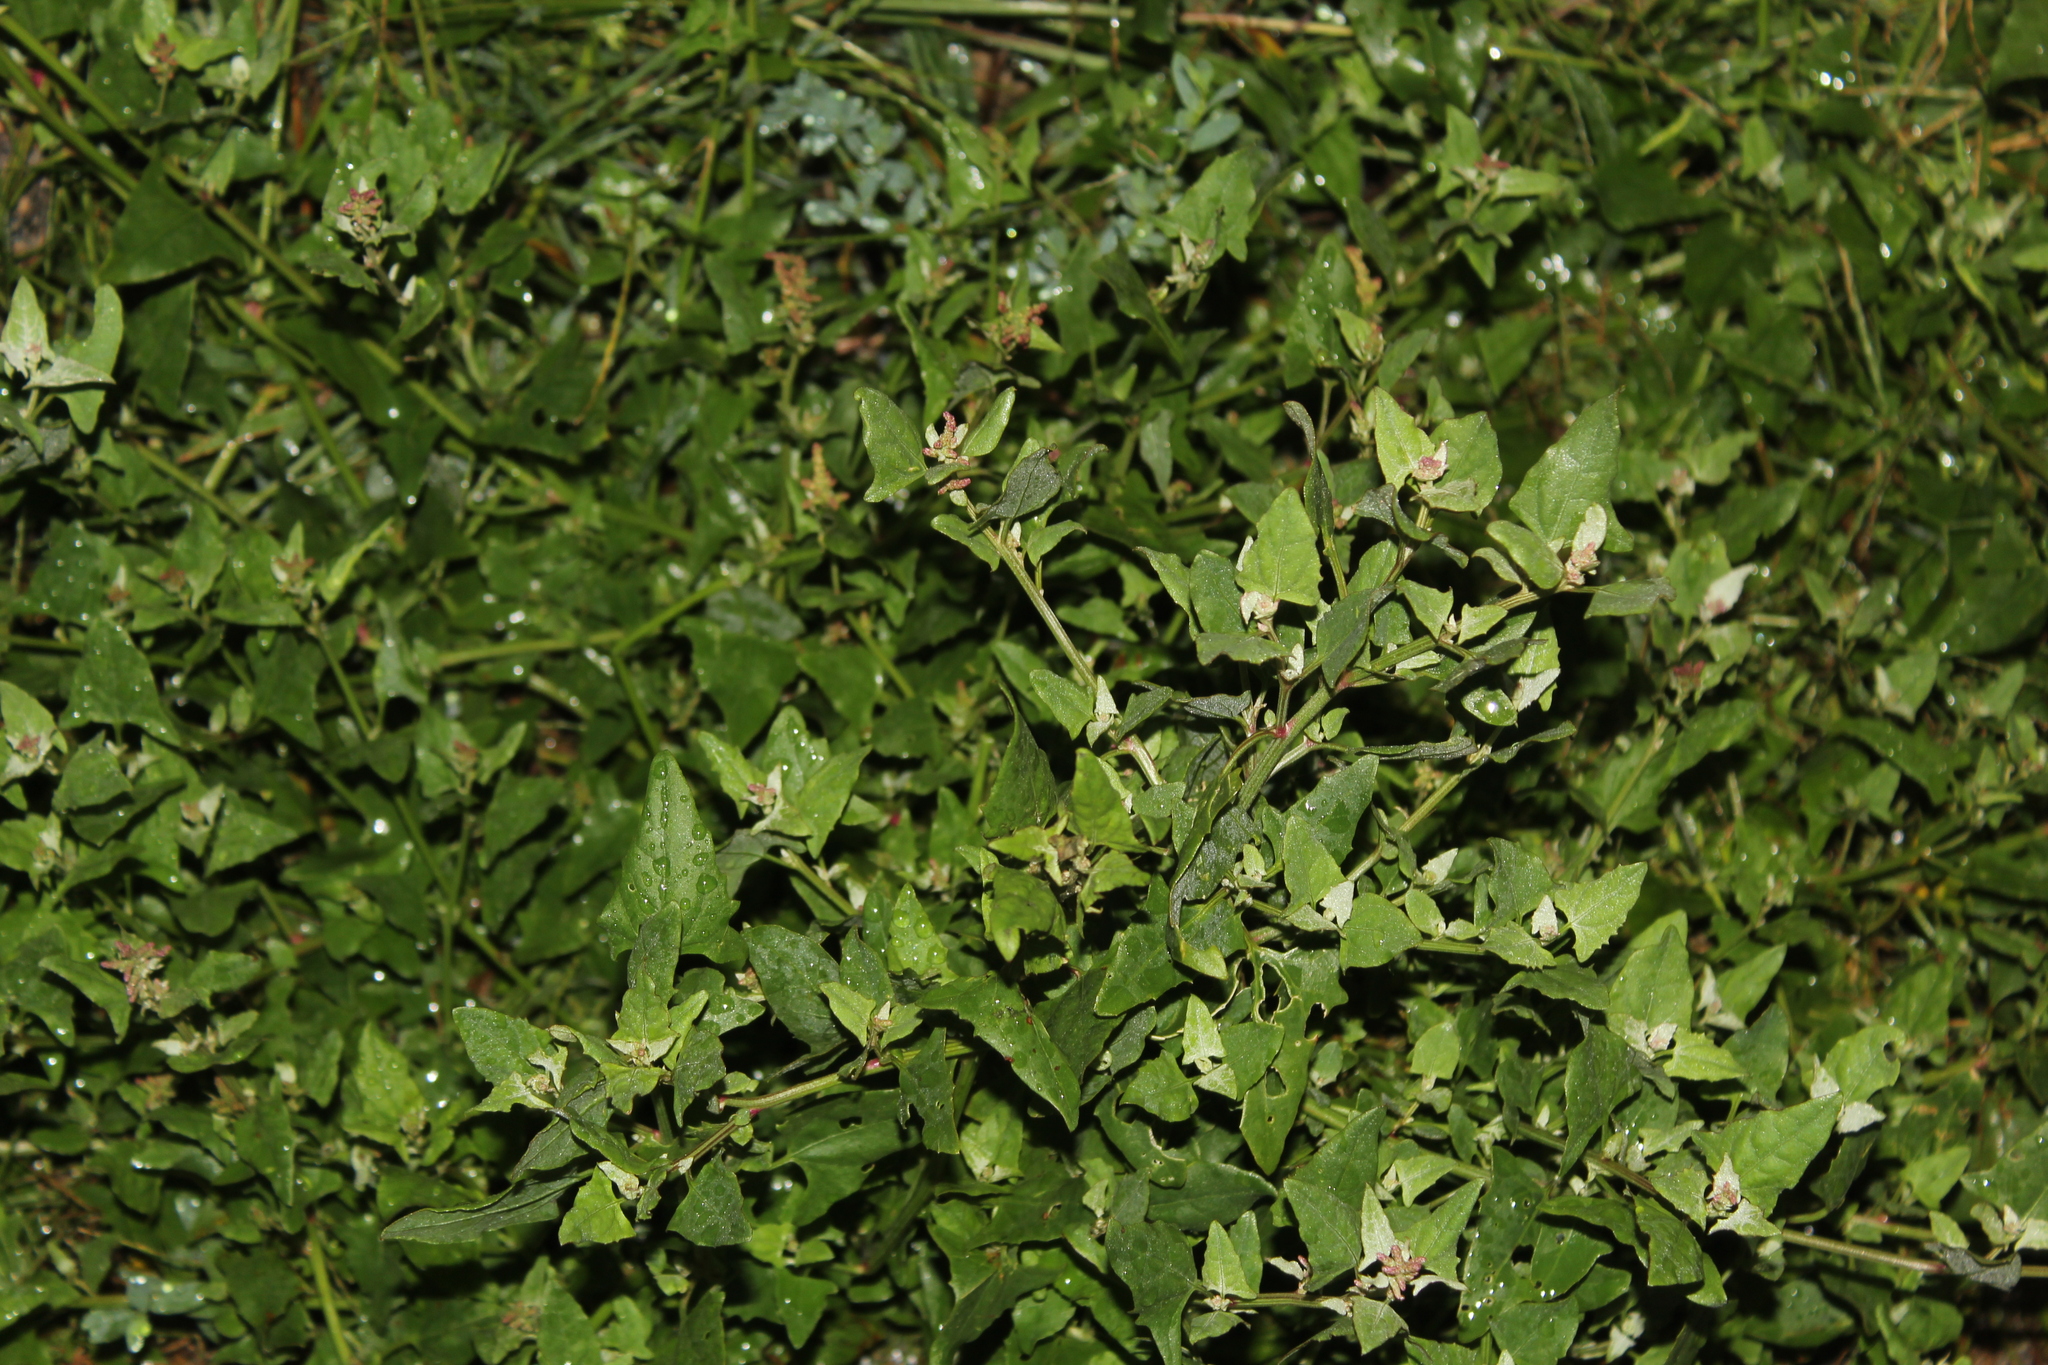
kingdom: Plantae
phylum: Tracheophyta
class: Magnoliopsida
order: Caryophyllales
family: Amaranthaceae
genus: Atriplex
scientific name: Atriplex prostrata
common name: Spear-leaved orache
